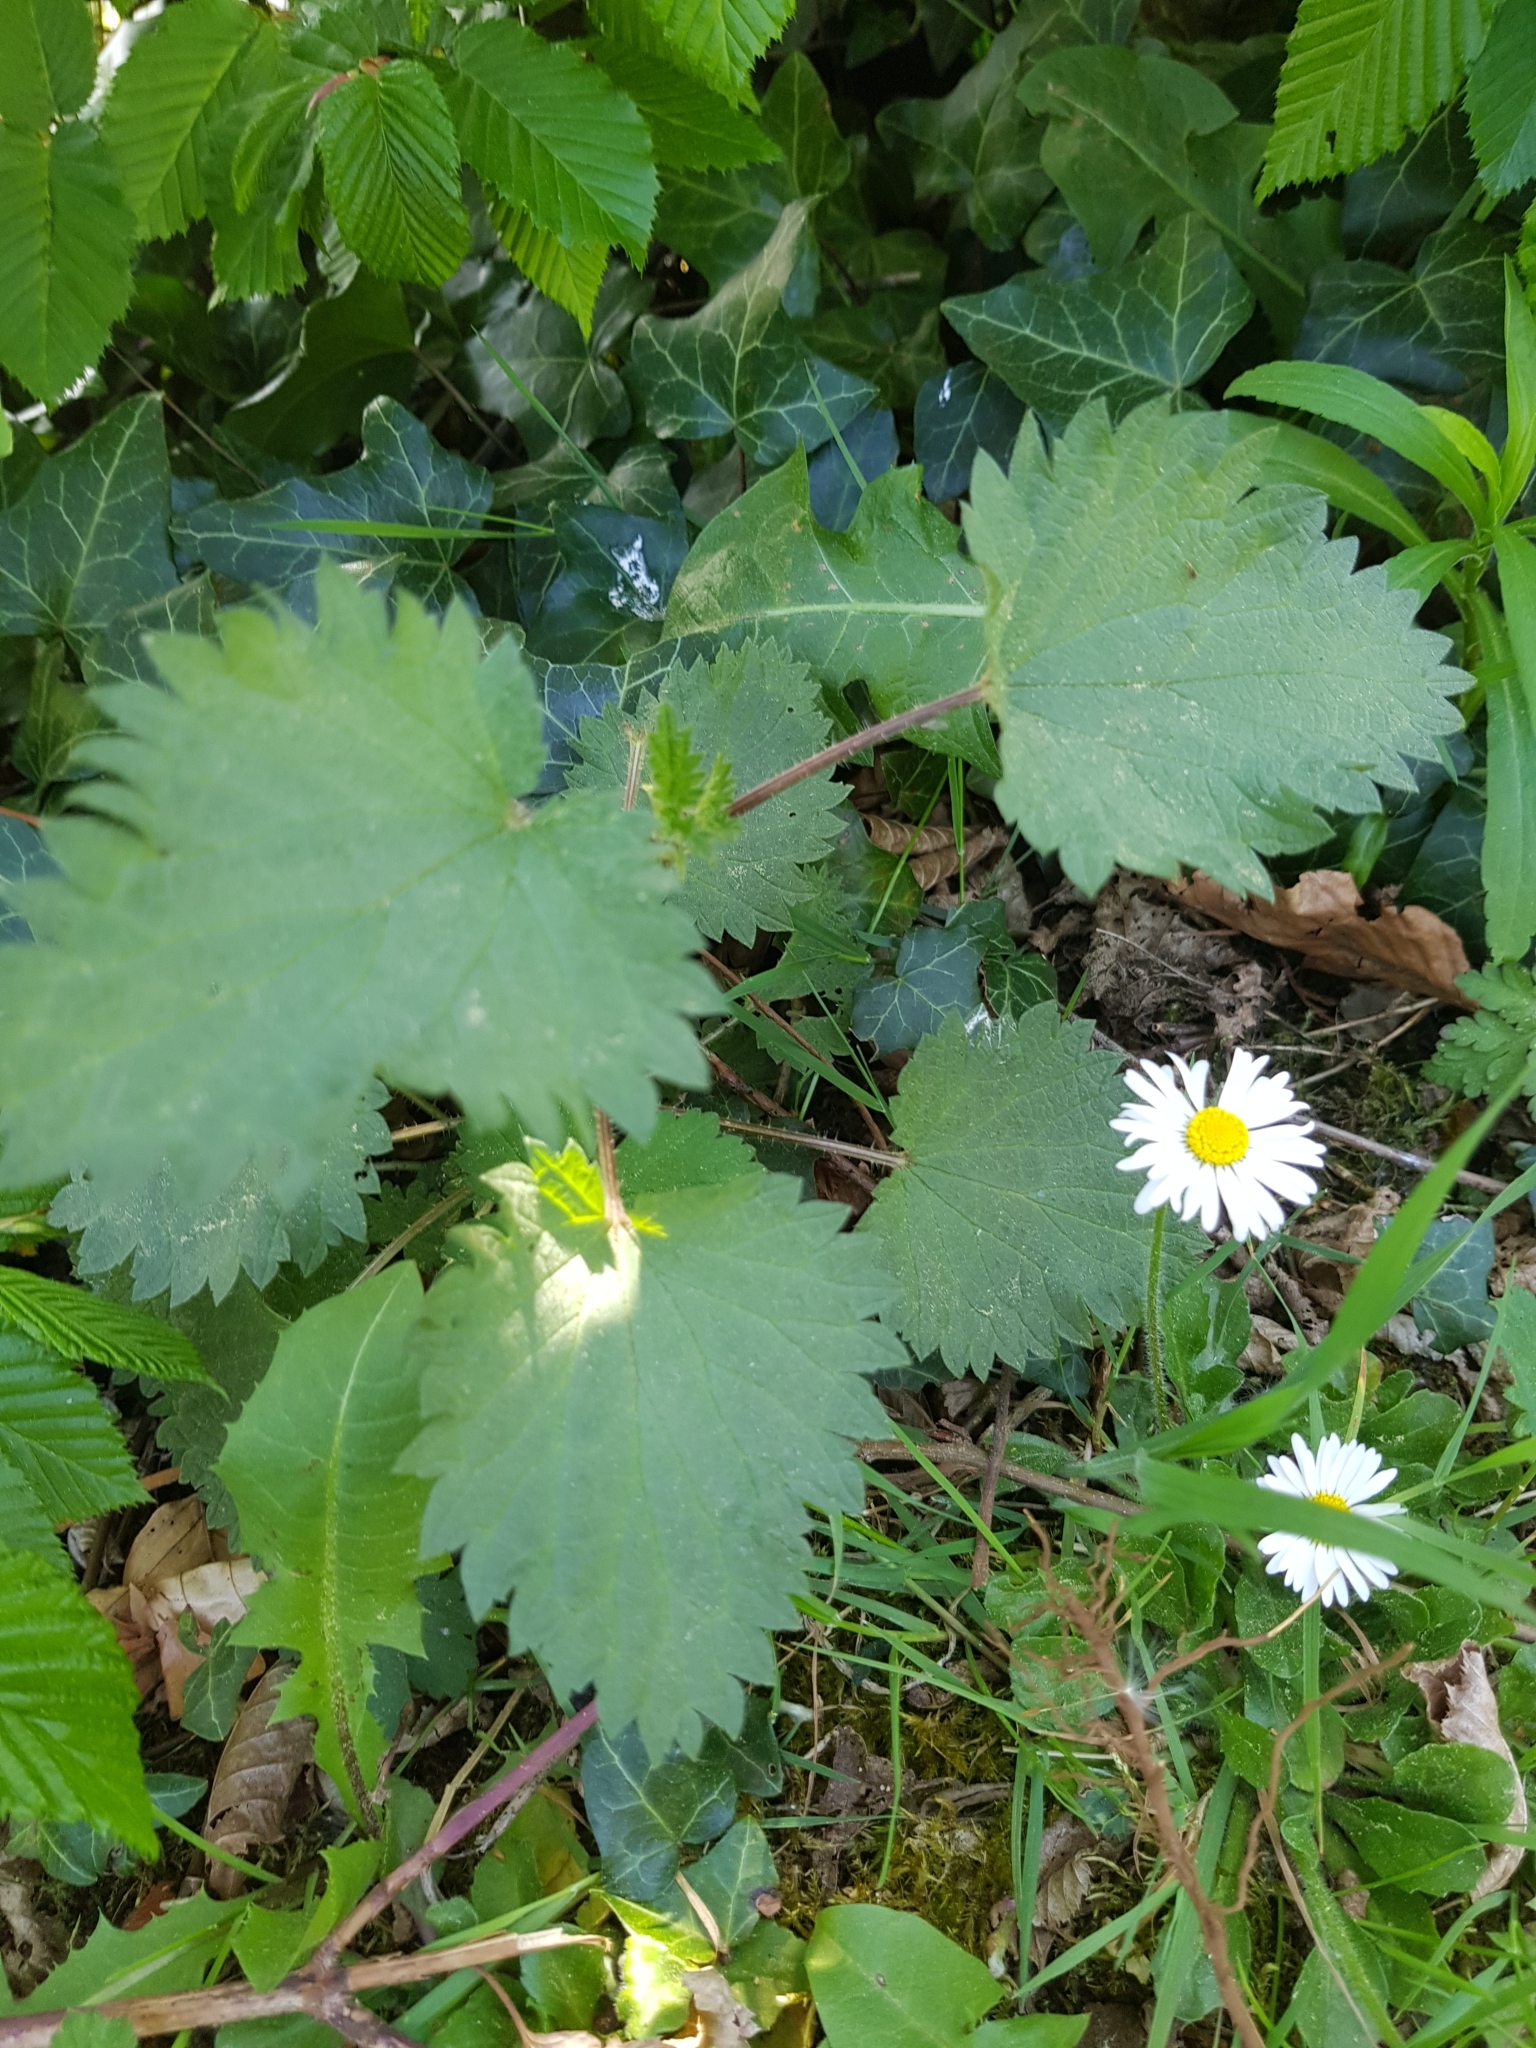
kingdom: Plantae
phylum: Tracheophyta
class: Magnoliopsida
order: Rosales
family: Urticaceae
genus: Urtica
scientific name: Urtica dioica
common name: Common nettle
